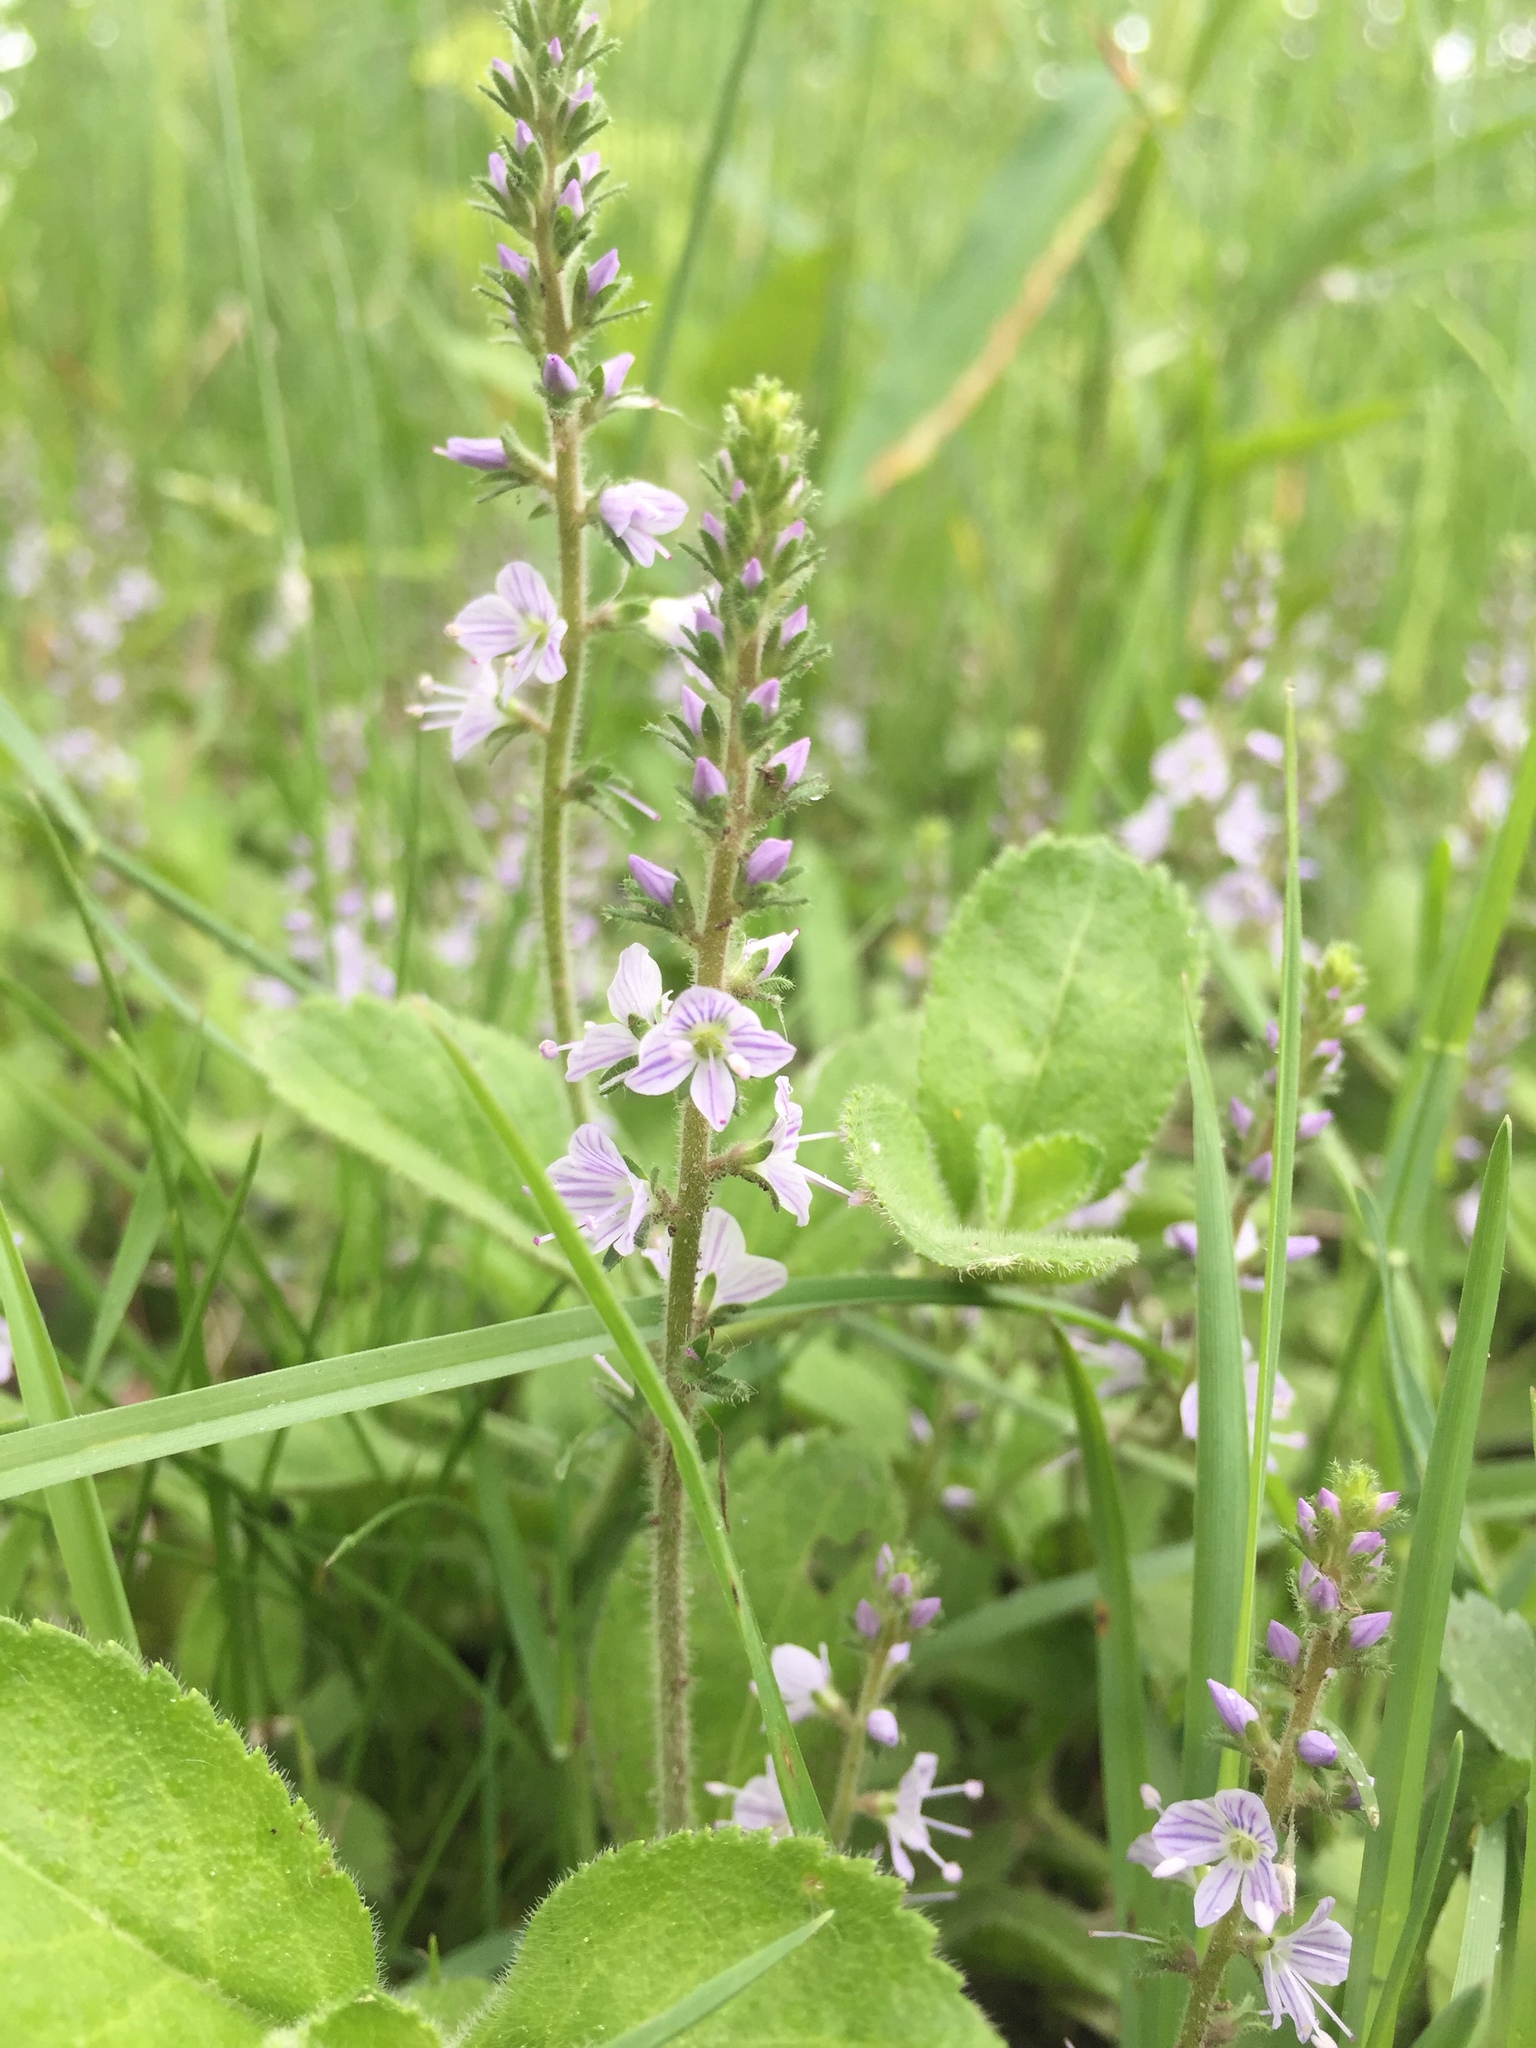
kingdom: Plantae
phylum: Tracheophyta
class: Magnoliopsida
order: Lamiales
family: Plantaginaceae
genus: Veronica
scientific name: Veronica officinalis
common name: Common speedwell
